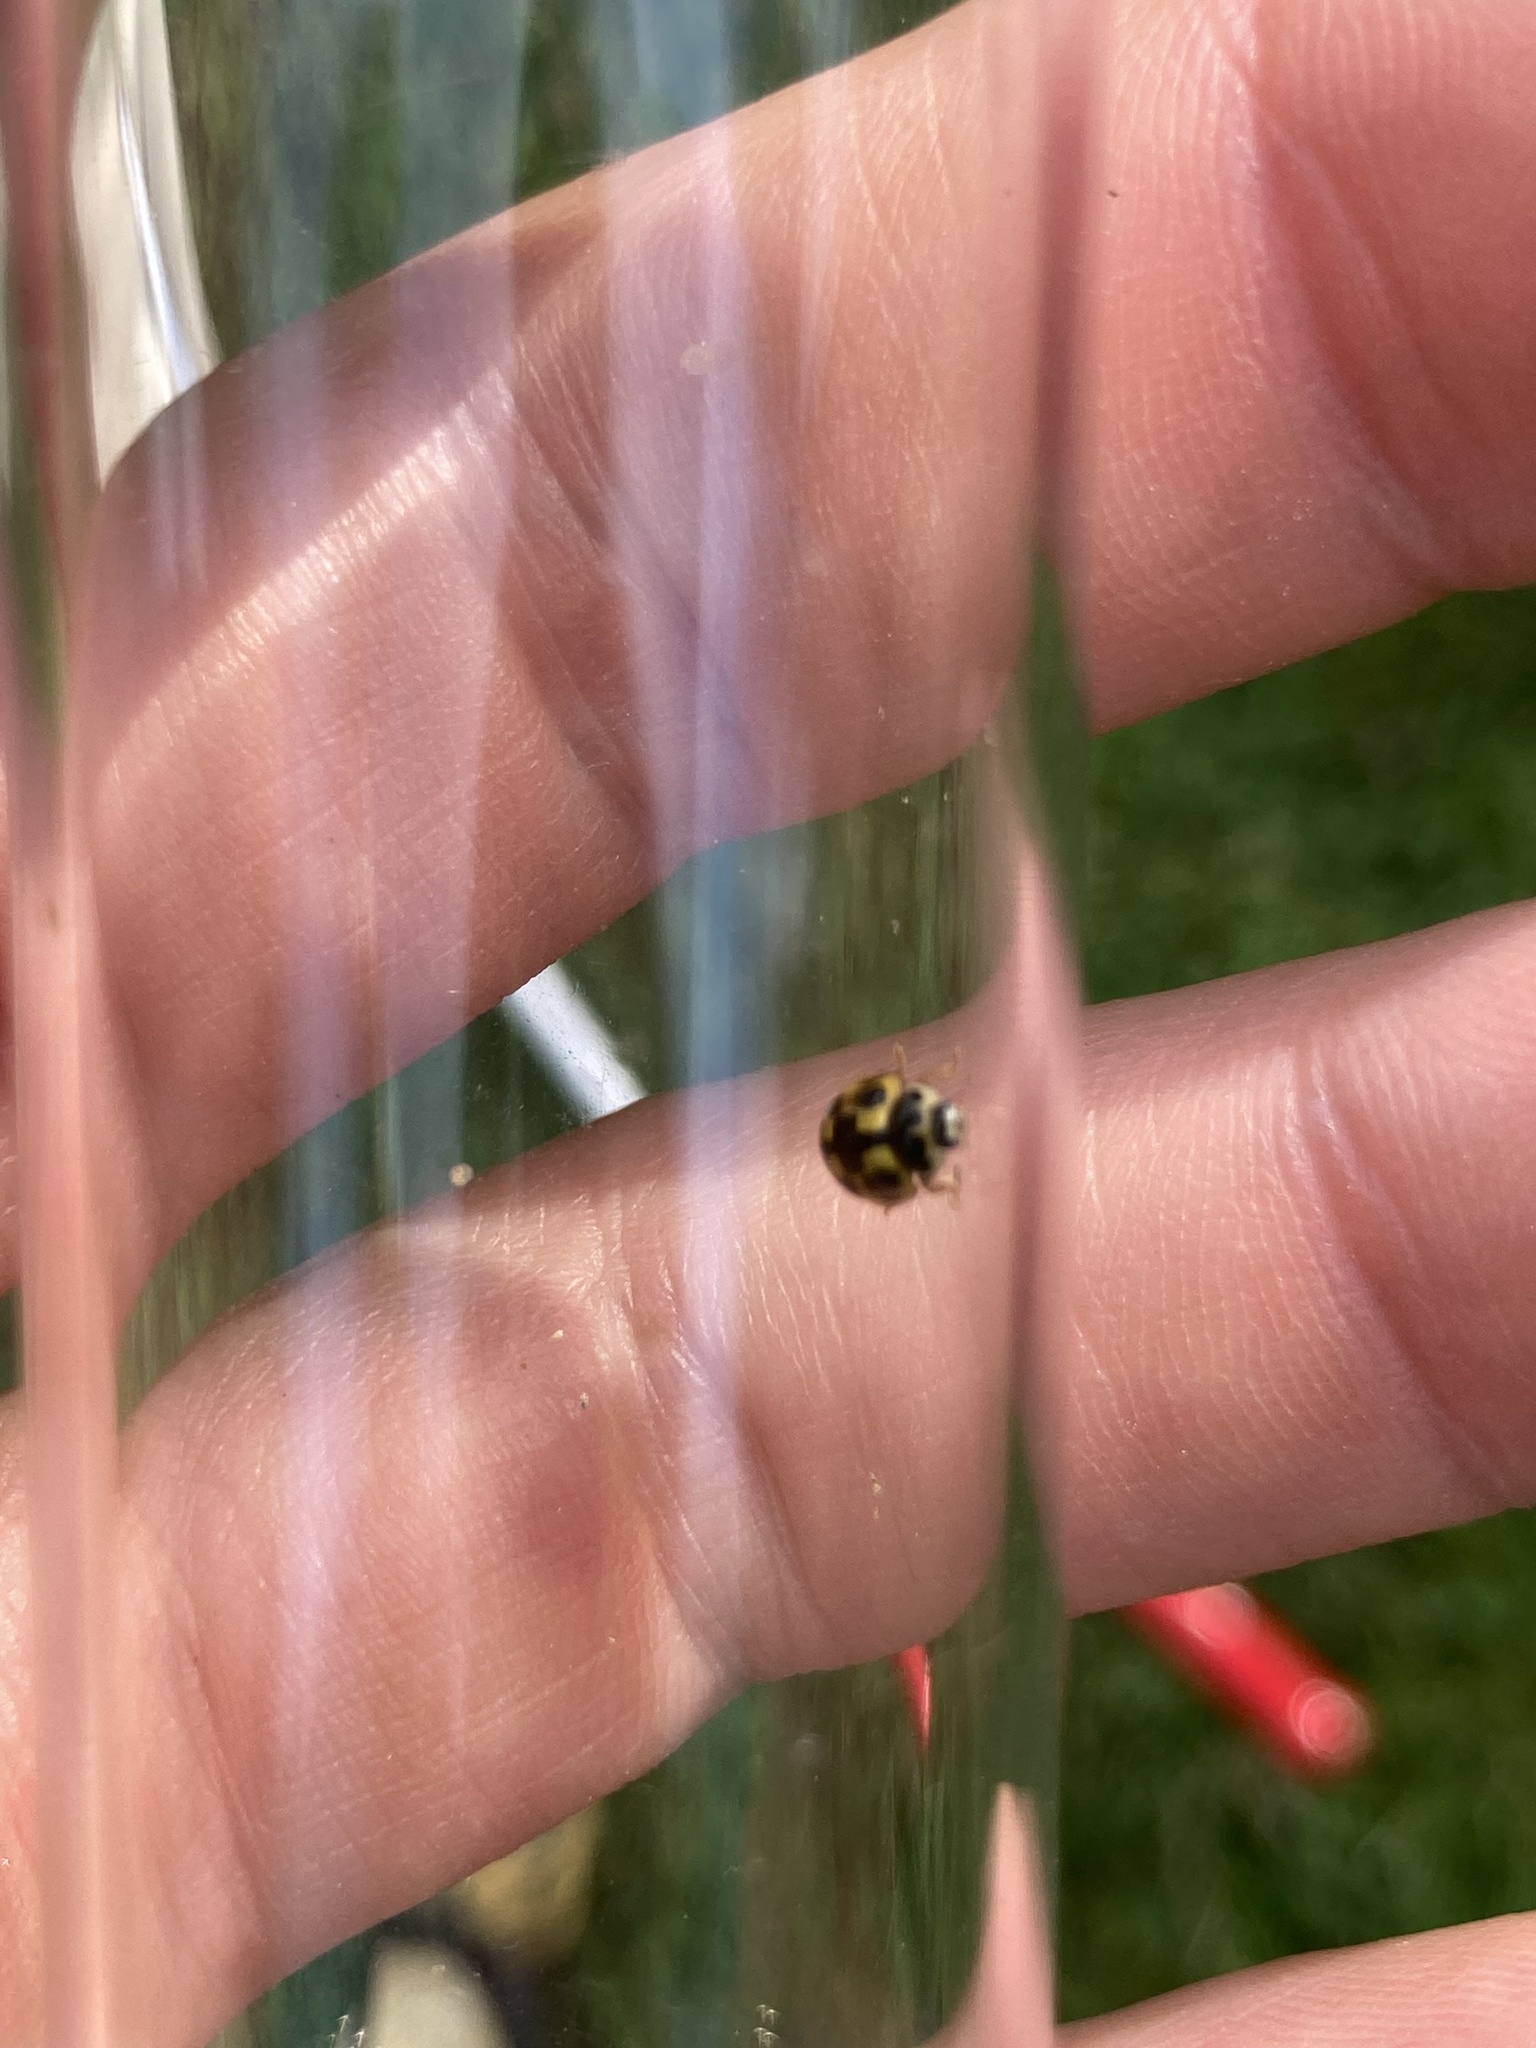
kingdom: Animalia
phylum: Arthropoda
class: Insecta
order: Coleoptera
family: Coccinellidae
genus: Propylaea
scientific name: Propylaea quatuordecimpunctata
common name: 14-spotted ladybird beetle
